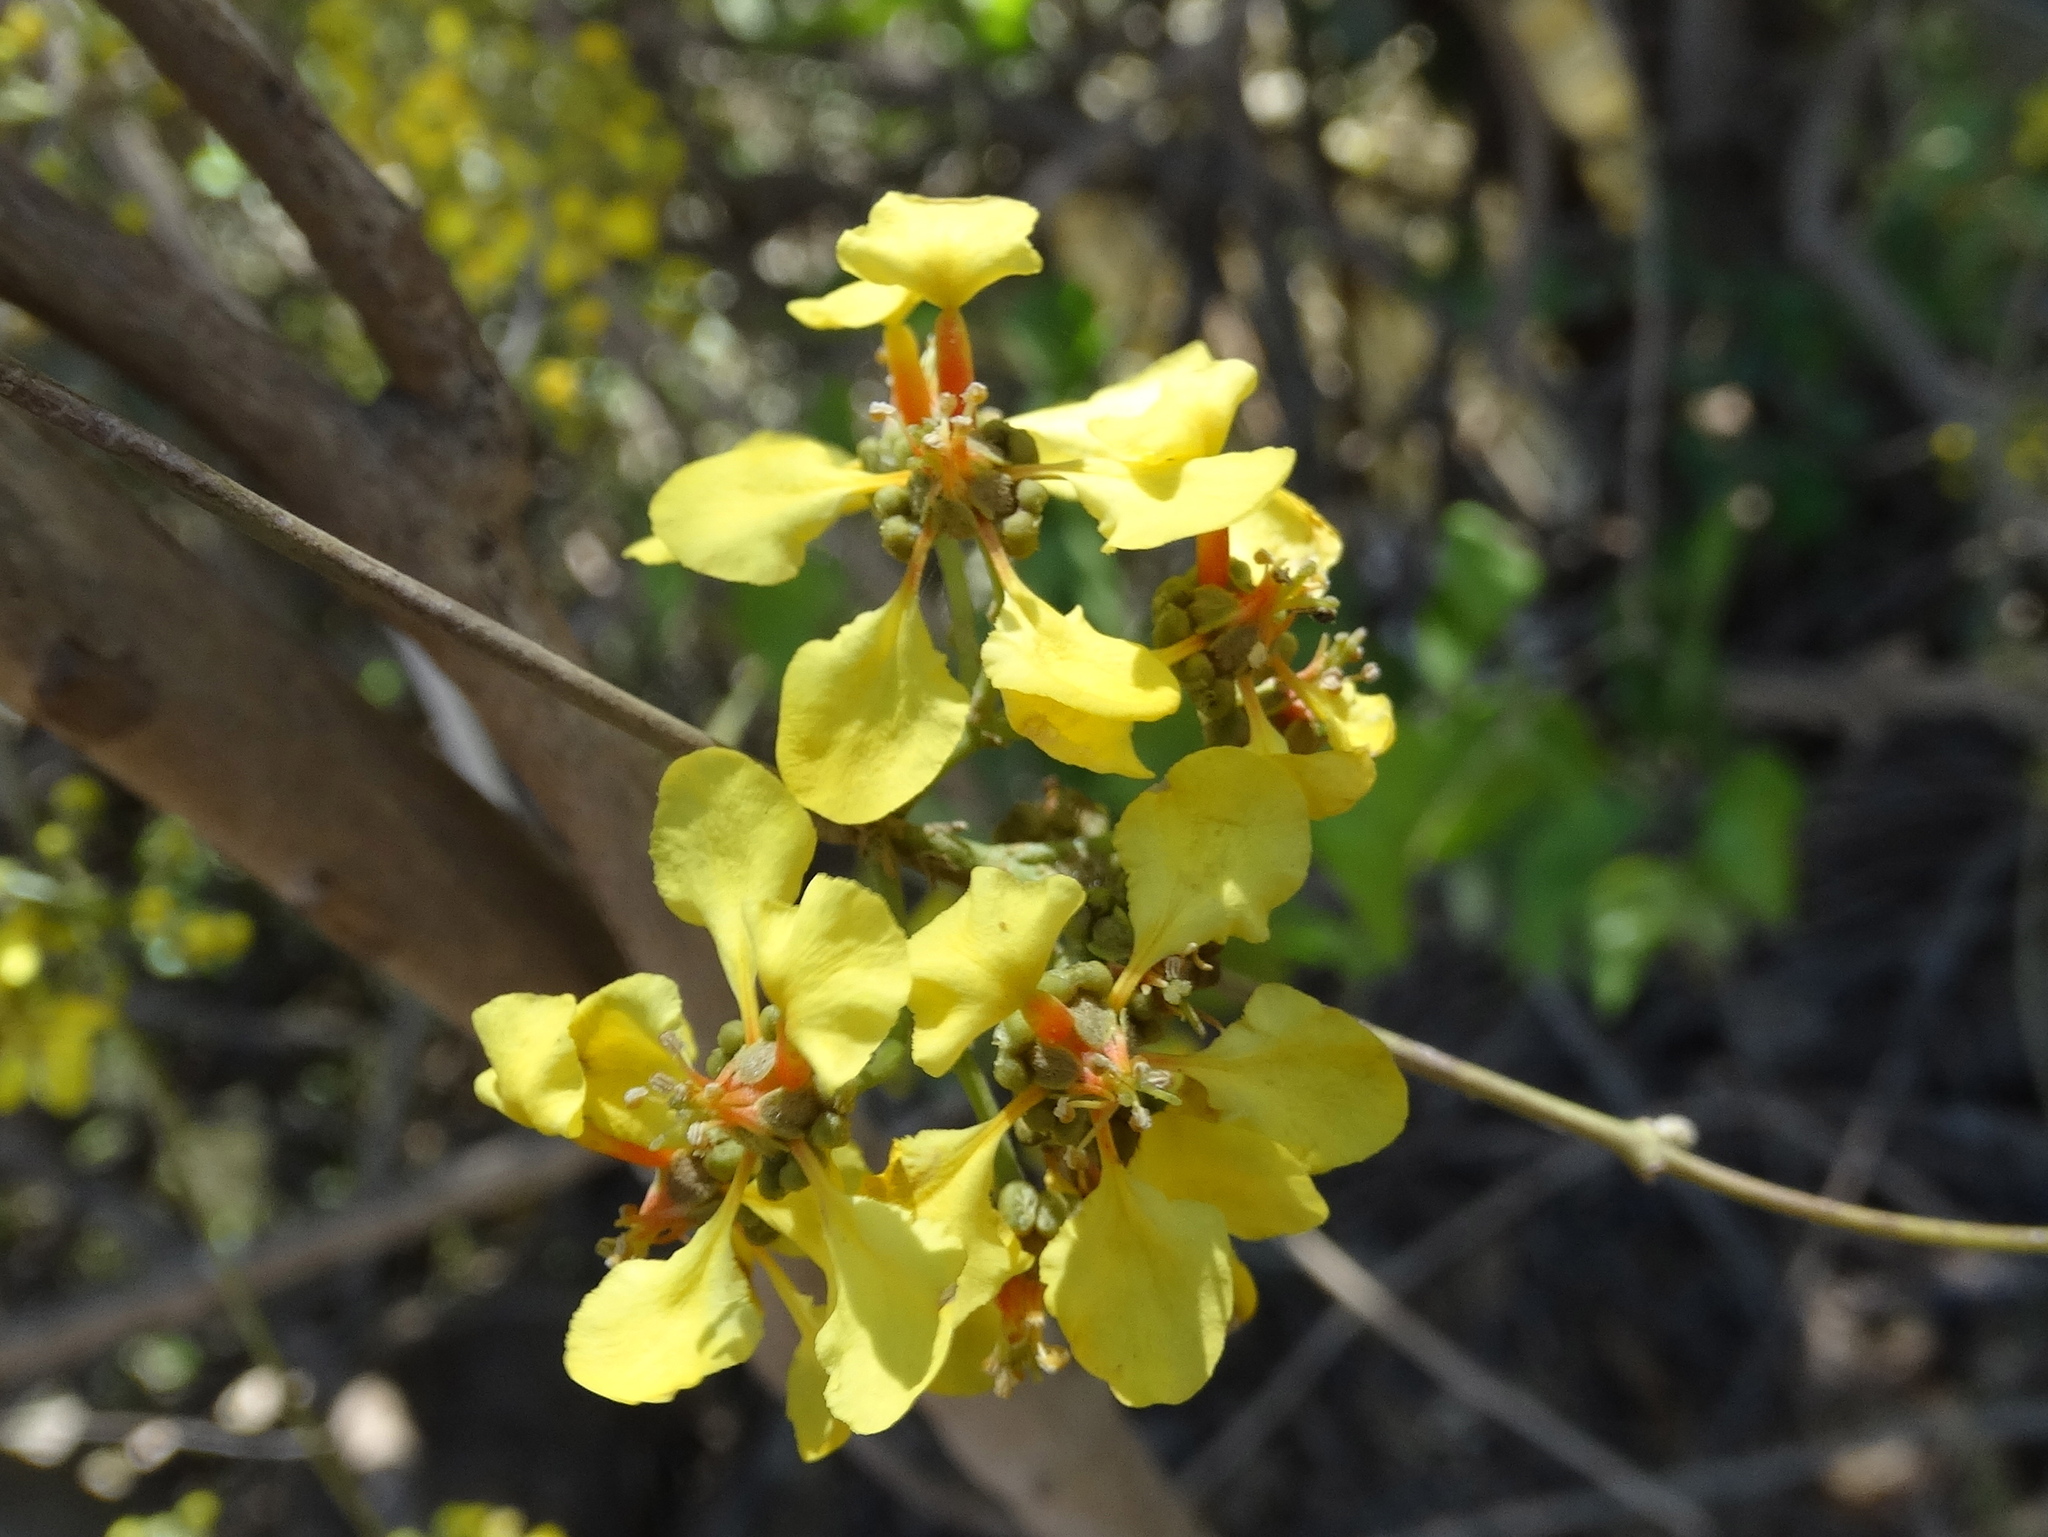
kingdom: Plantae
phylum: Tracheophyta
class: Magnoliopsida
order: Malpighiales
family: Malpighiaceae
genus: Heteropterys
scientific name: Heteropterys laurifolia
